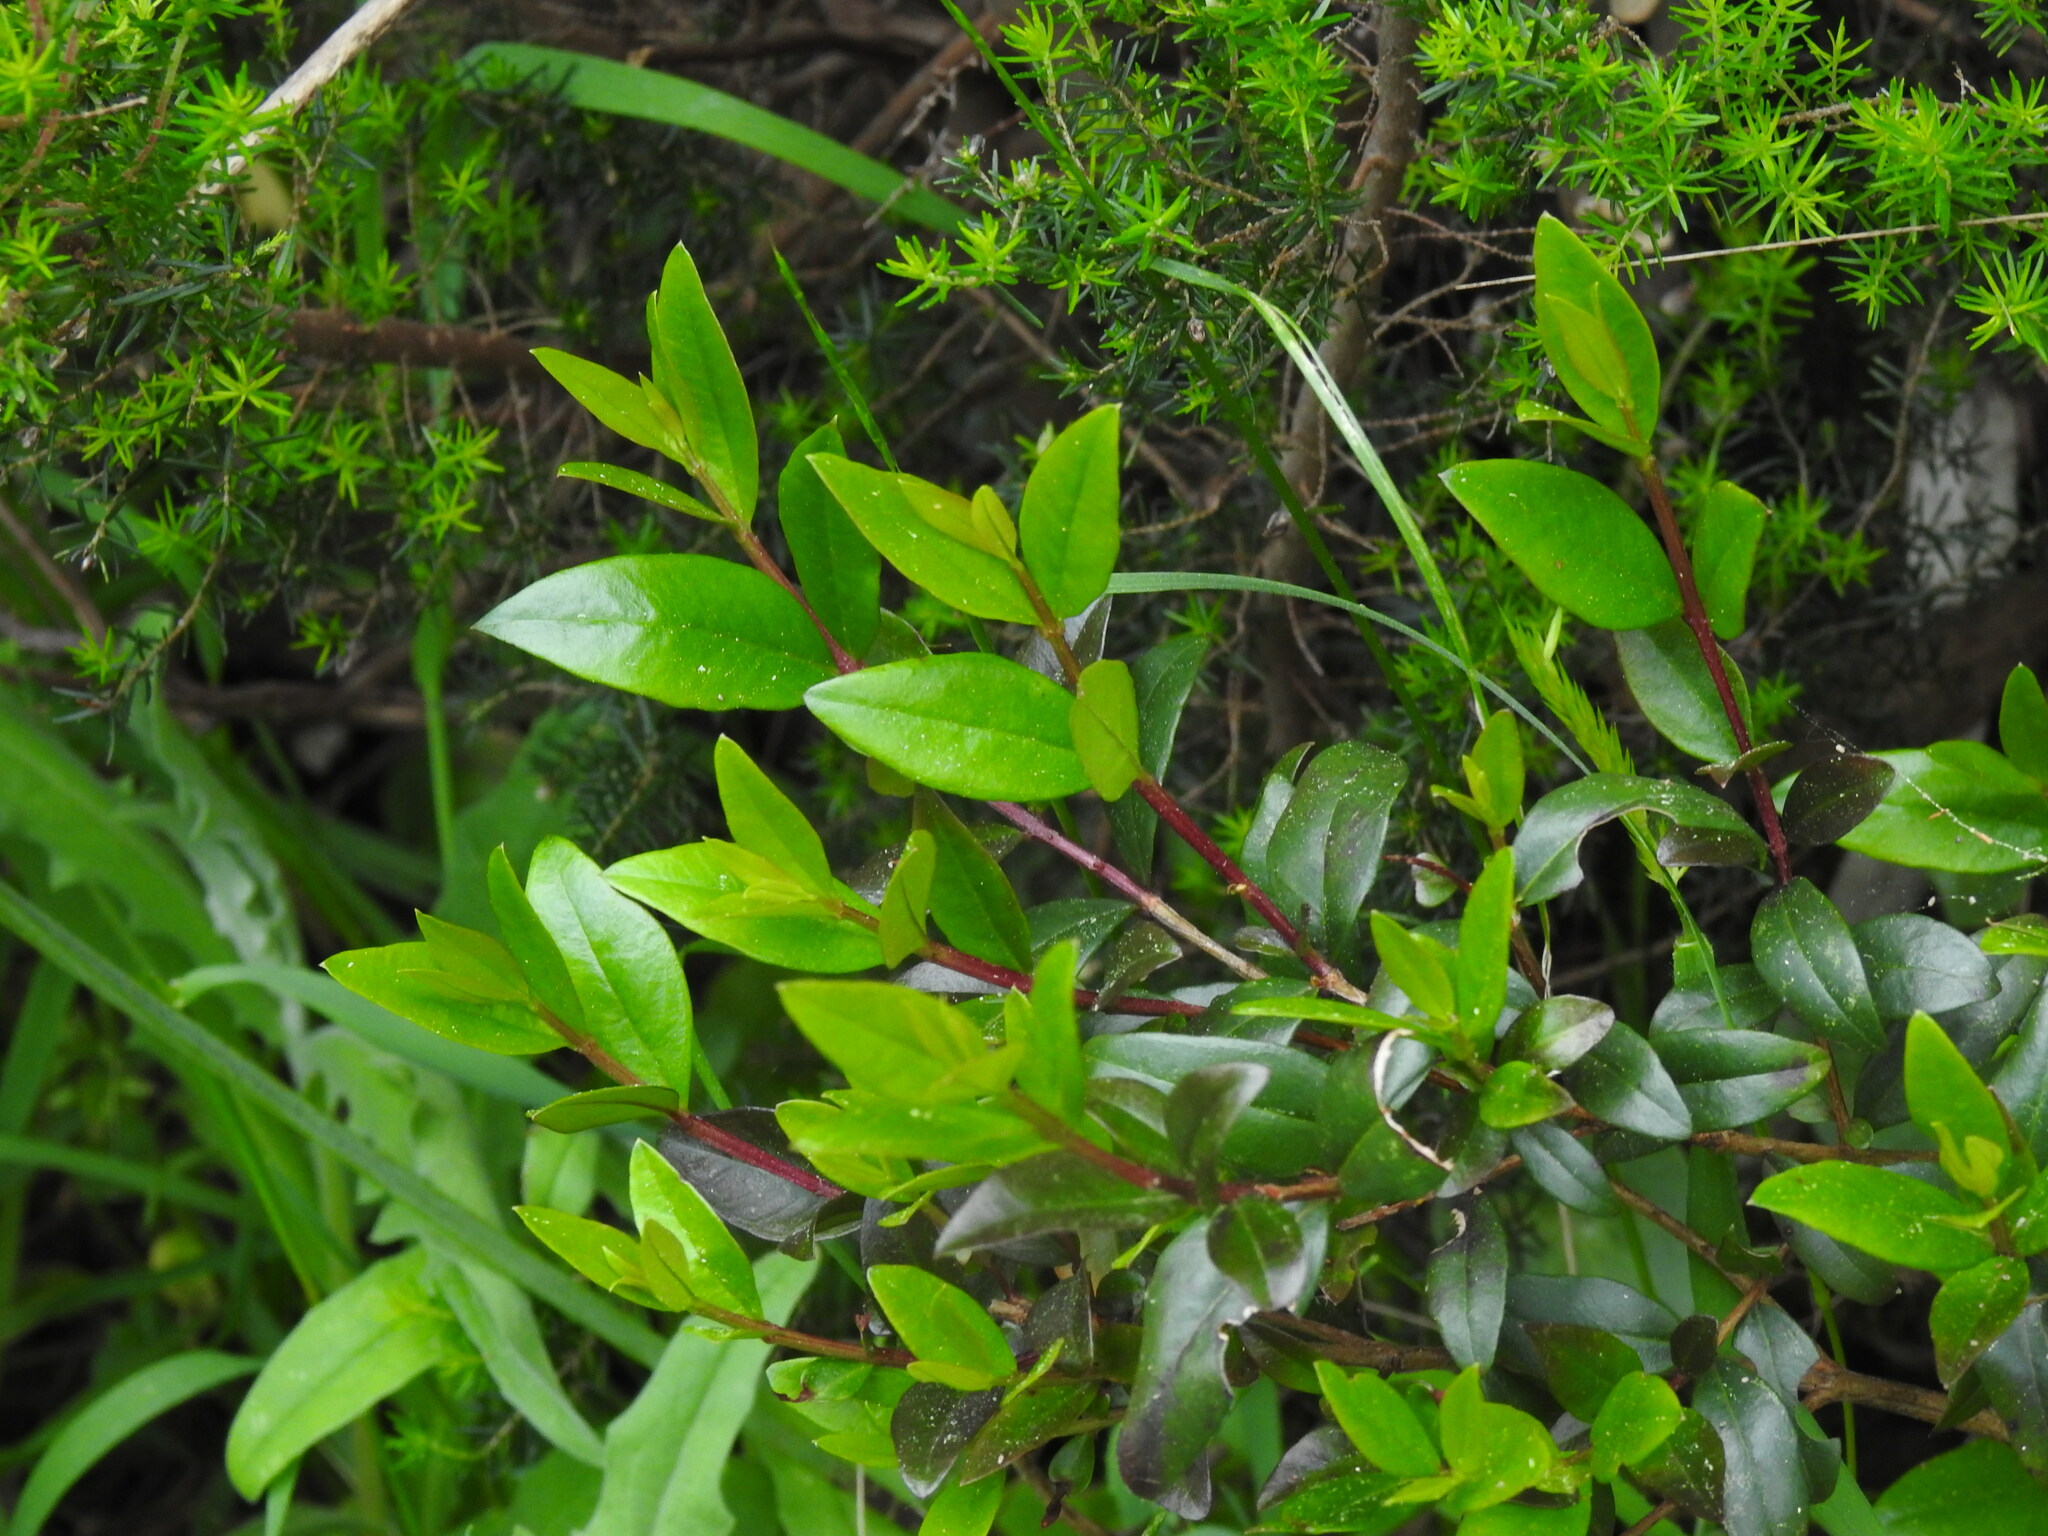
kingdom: Plantae
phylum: Tracheophyta
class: Magnoliopsida
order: Myrtales
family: Myrtaceae
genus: Myrtus
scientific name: Myrtus communis
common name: Myrtle
